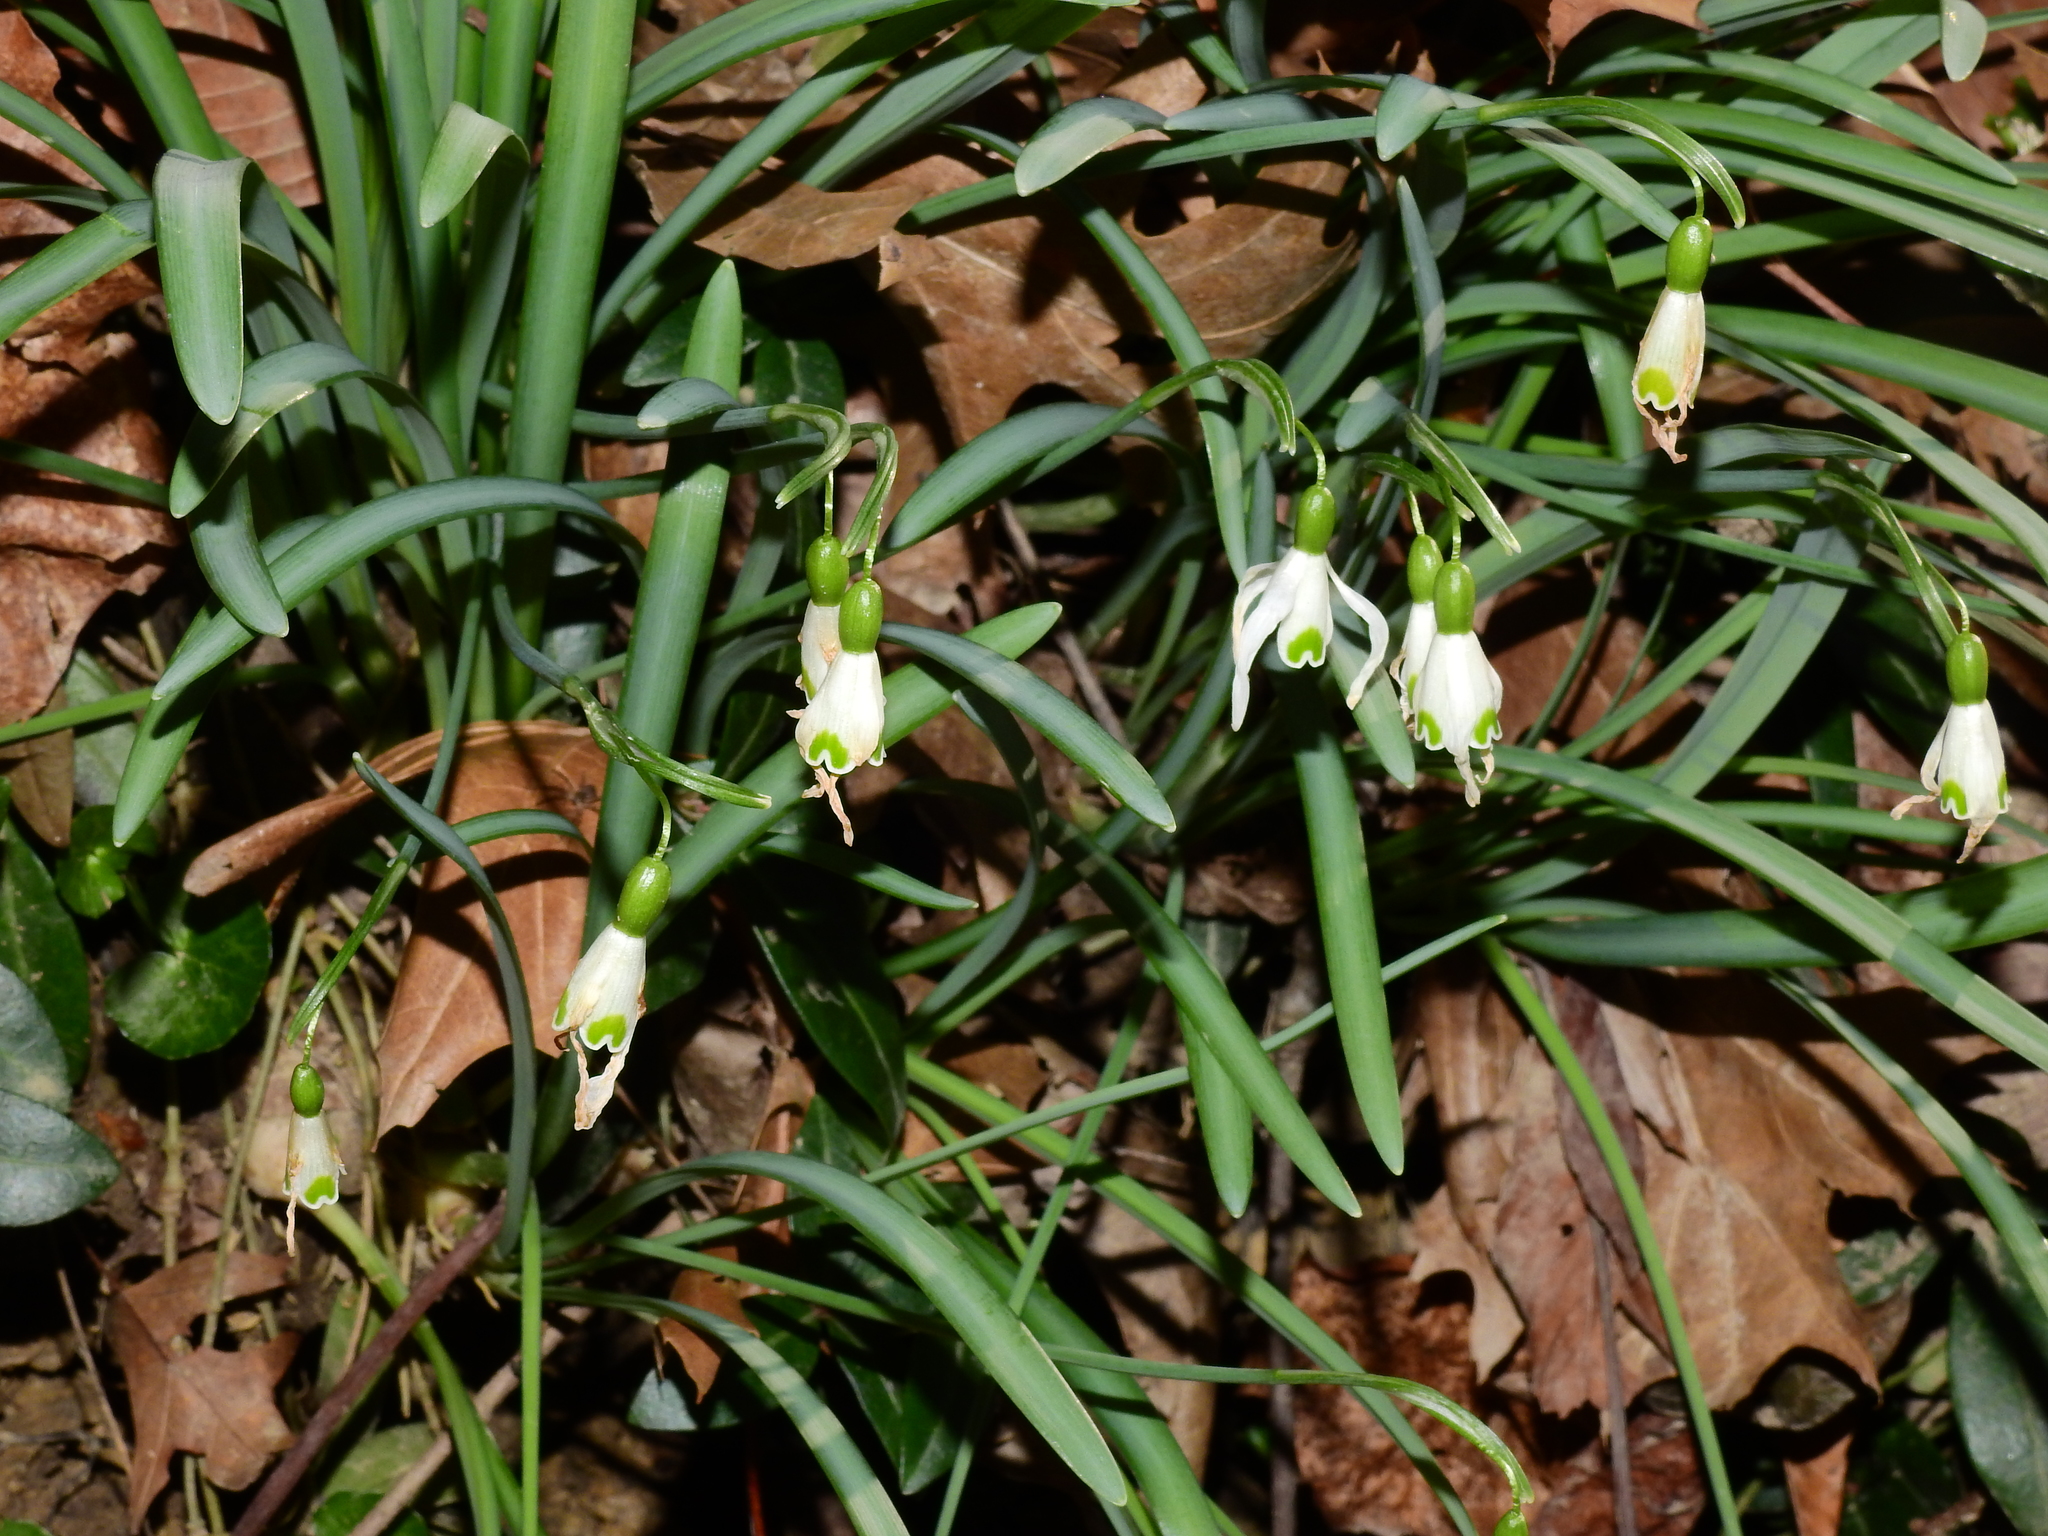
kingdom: Plantae
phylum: Tracheophyta
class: Liliopsida
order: Asparagales
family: Amaryllidaceae
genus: Galanthus
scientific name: Galanthus nivalis
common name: Snowdrop
